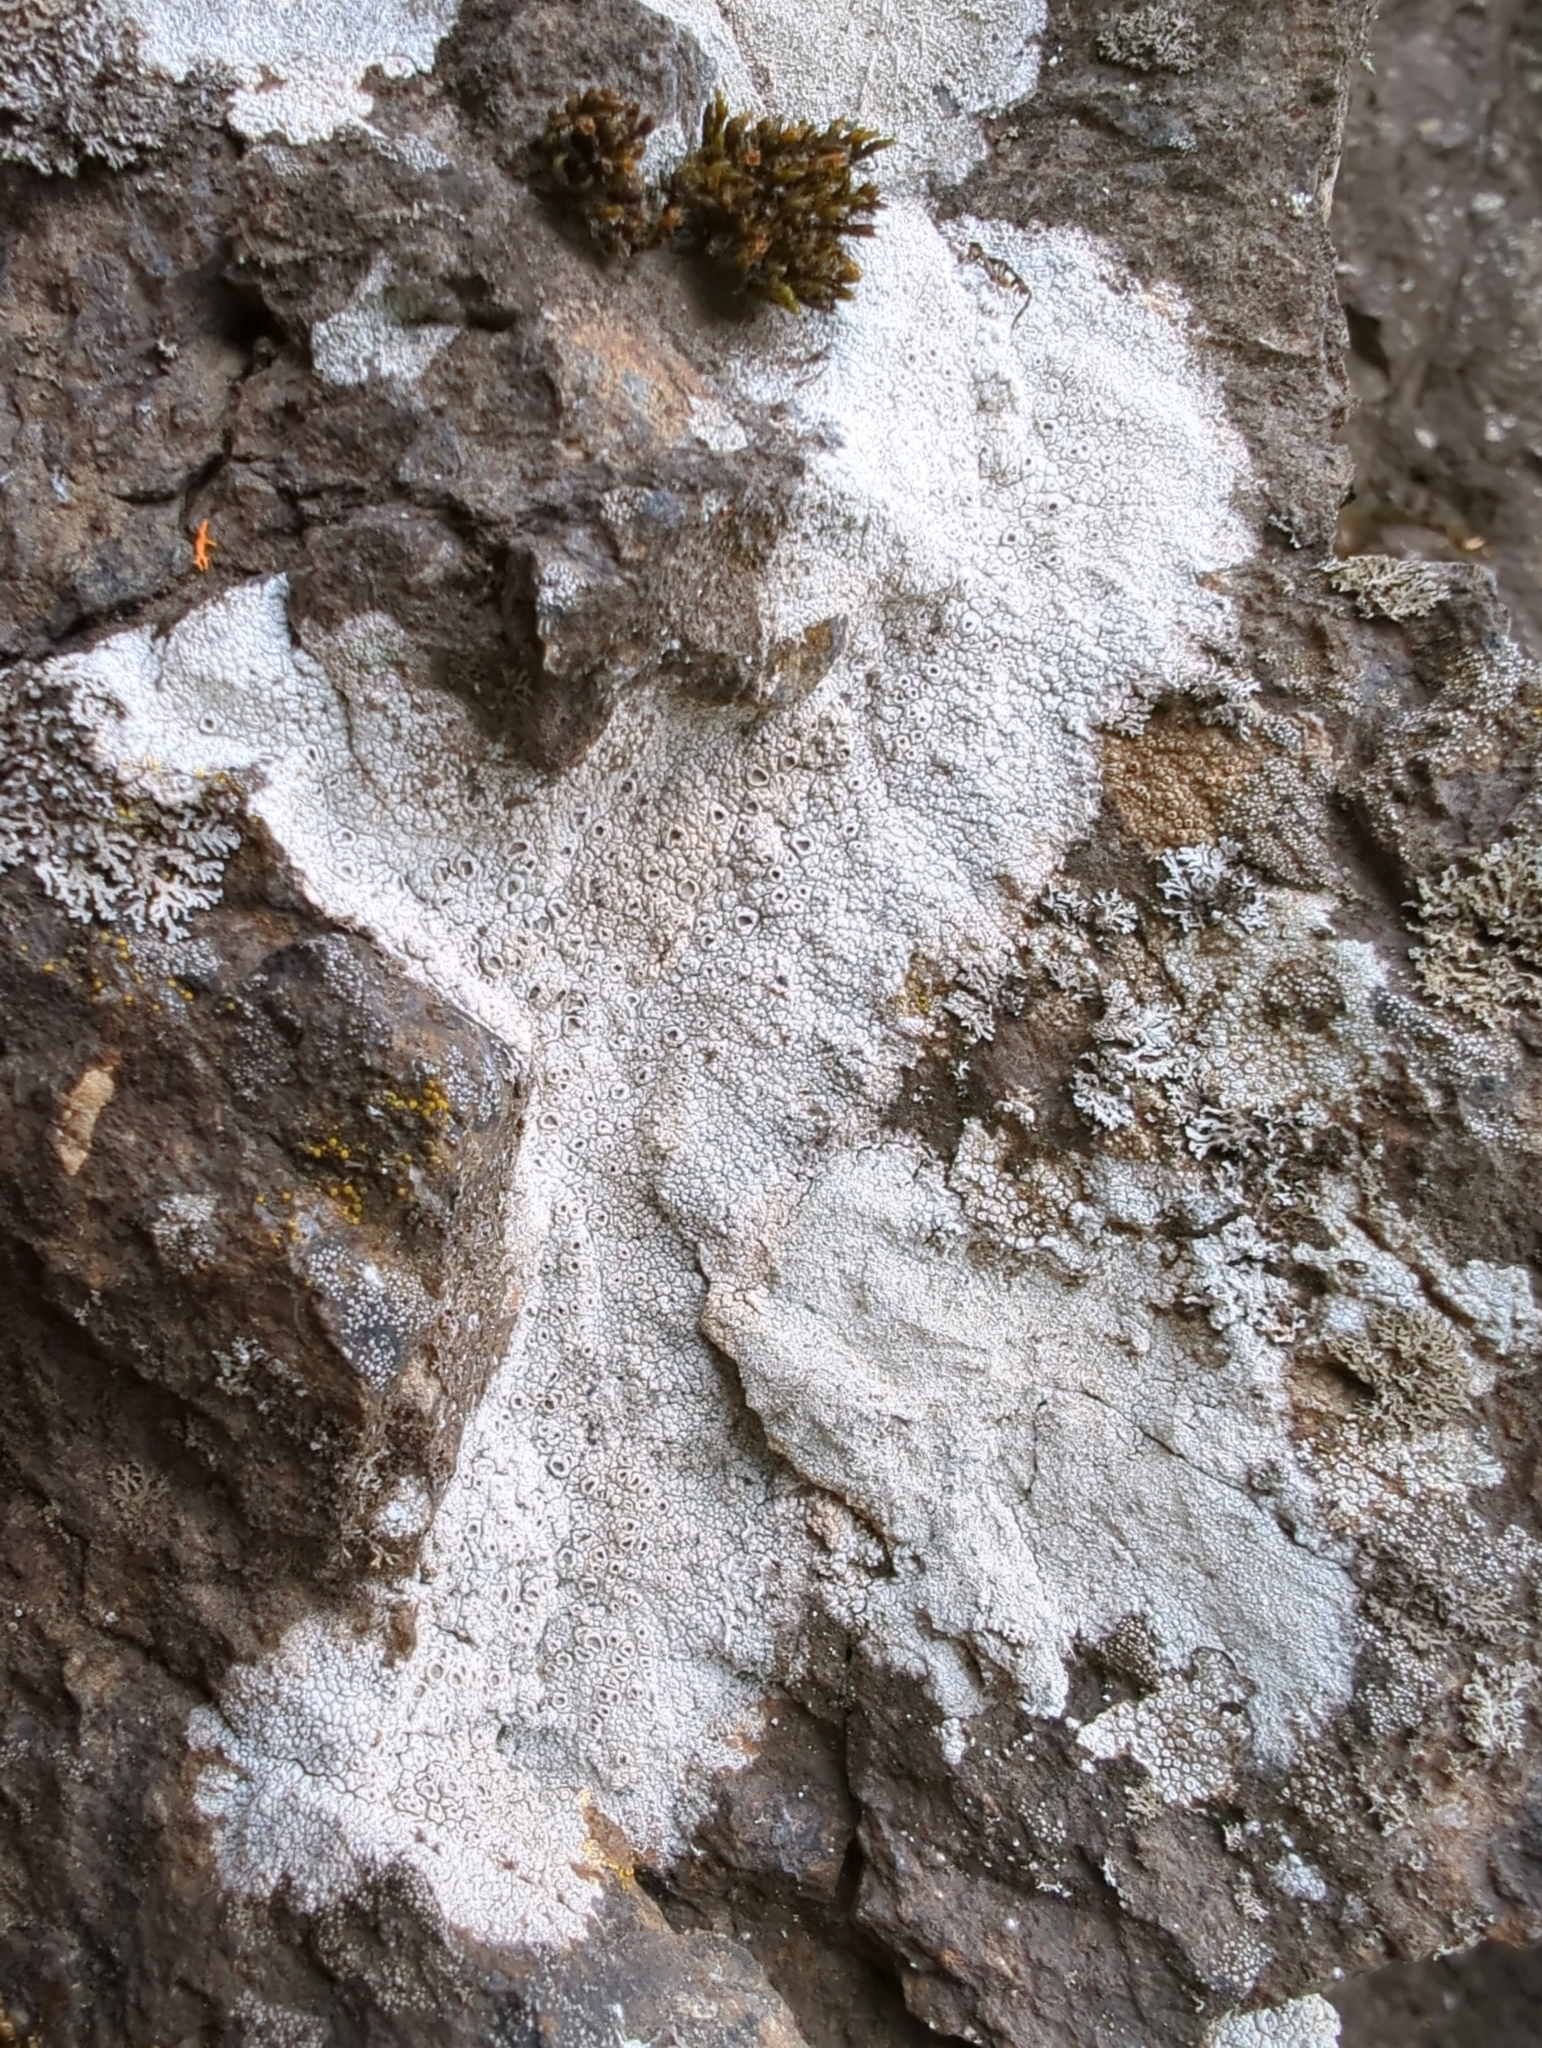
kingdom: Fungi
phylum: Ascomycota
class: Lecanoromycetes
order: Ostropales
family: Graphidaceae
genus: Diploschistes
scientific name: Diploschistes muscorum
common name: Cowpie lichen
